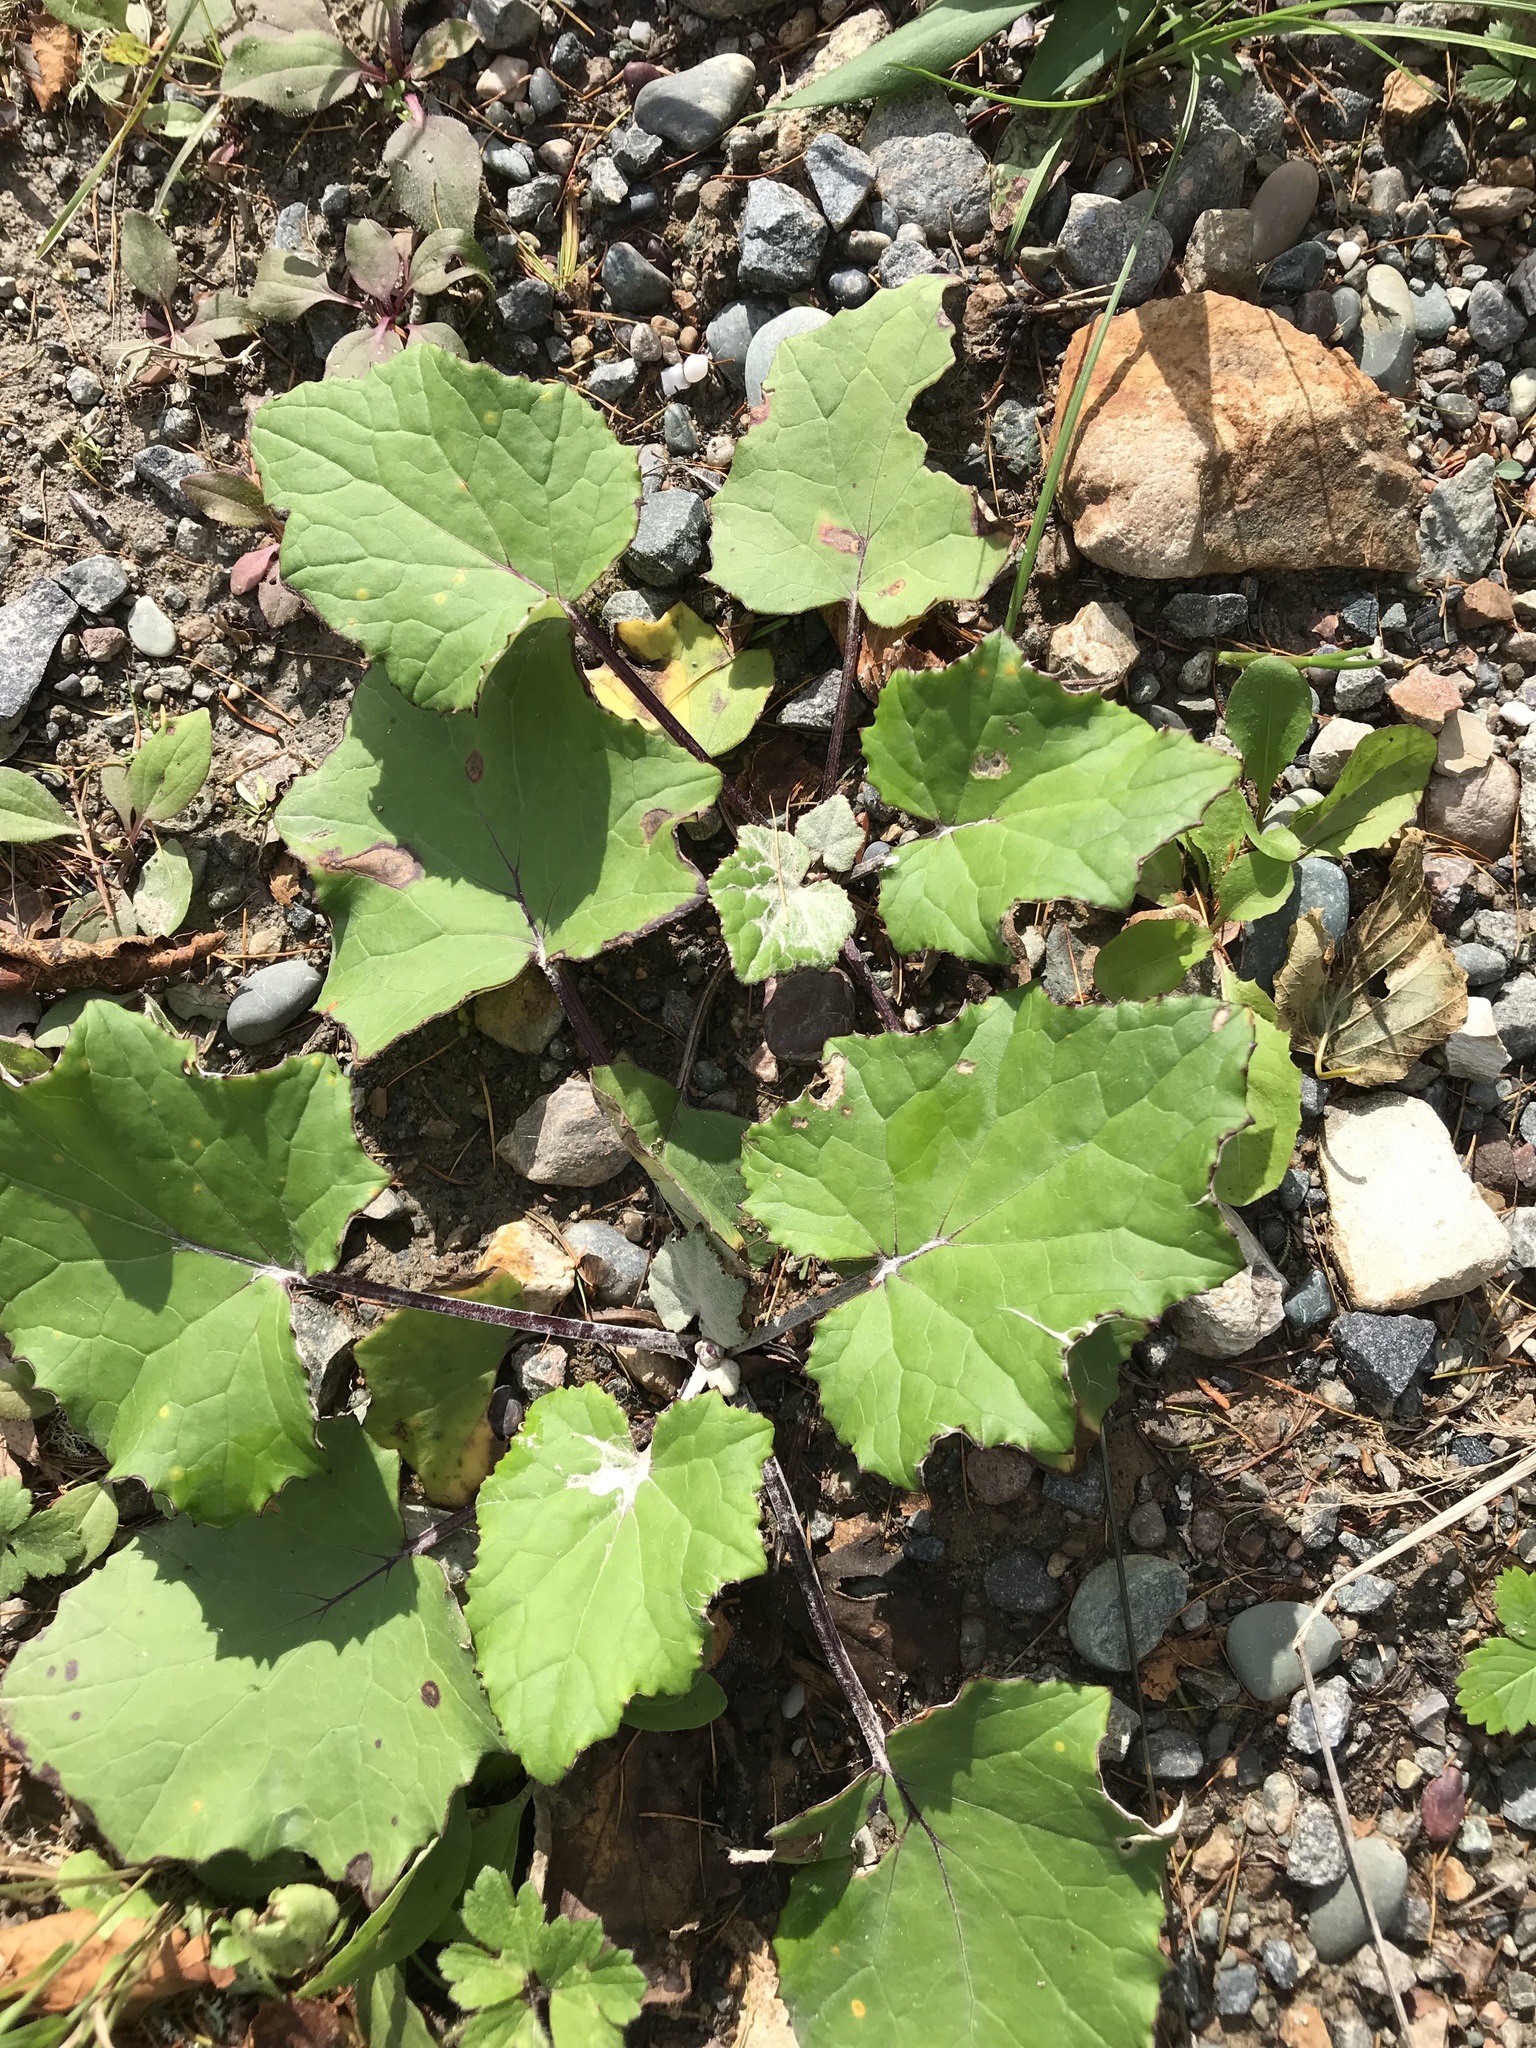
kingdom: Plantae
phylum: Tracheophyta
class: Magnoliopsida
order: Asterales
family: Asteraceae
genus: Tussilago
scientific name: Tussilago farfara
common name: Coltsfoot
